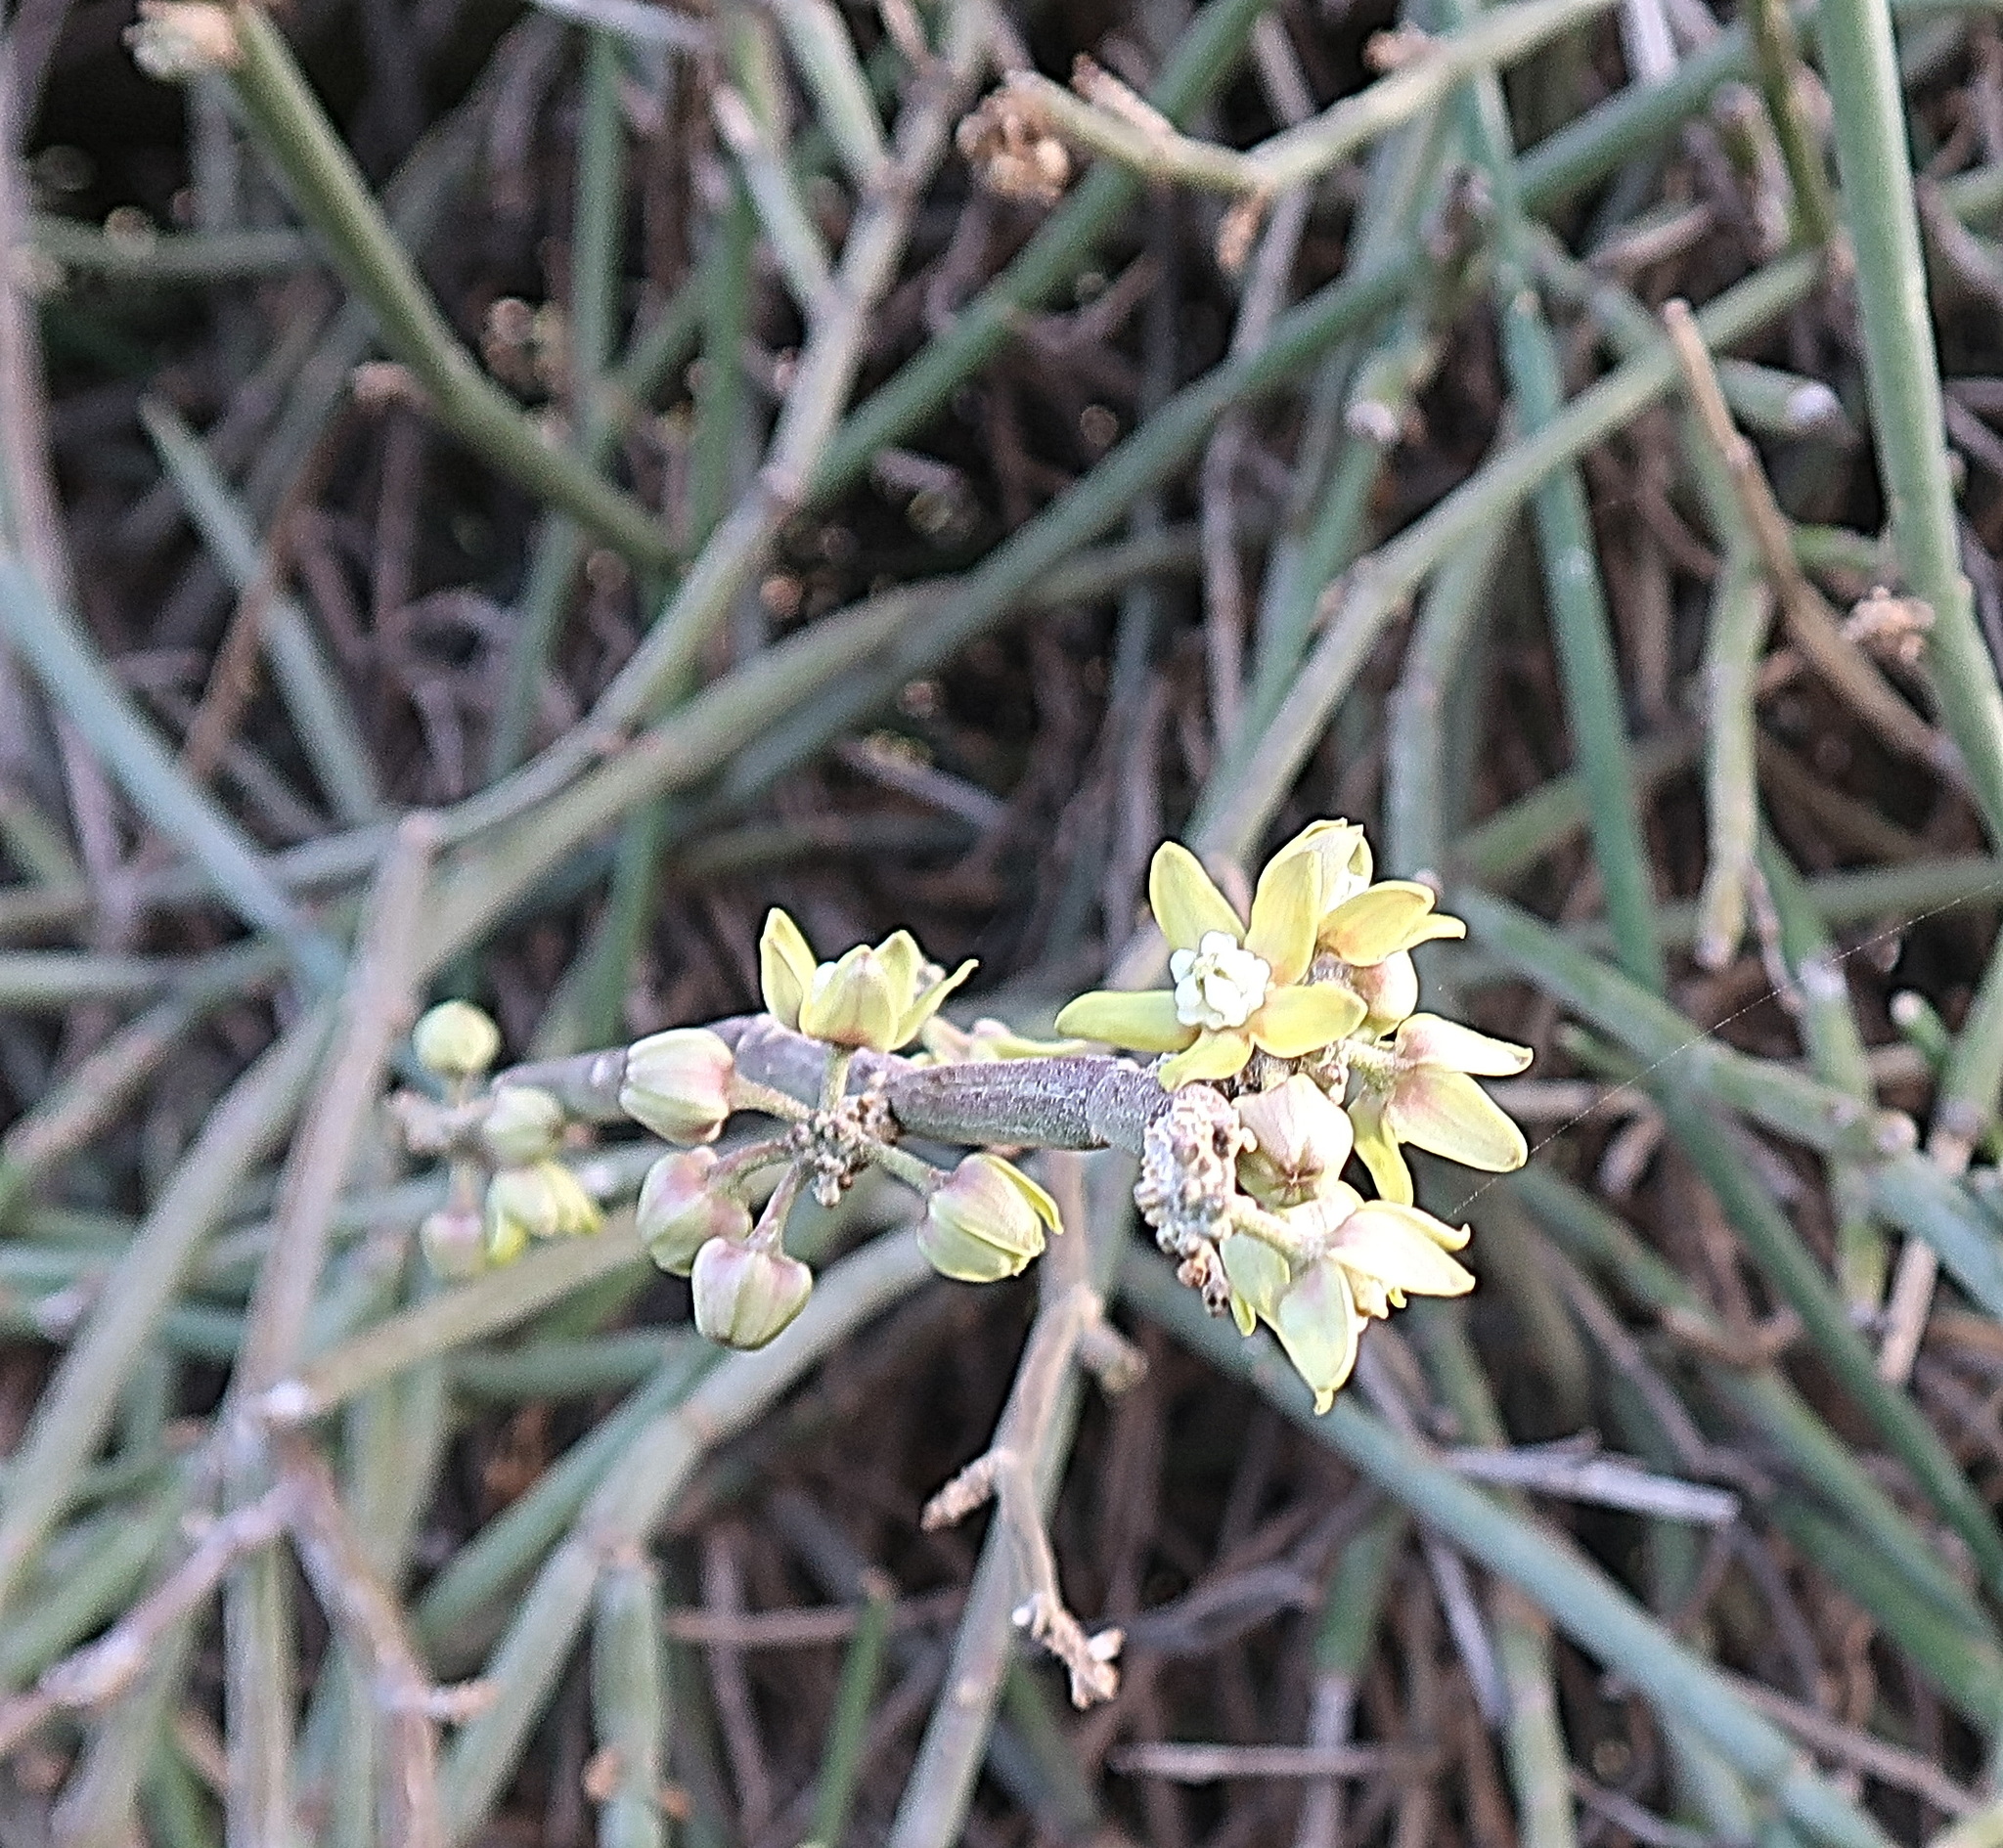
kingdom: Plantae
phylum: Tracheophyta
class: Magnoliopsida
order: Gentianales
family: Apocynaceae
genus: Cynanchum
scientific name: Cynanchum viminale
